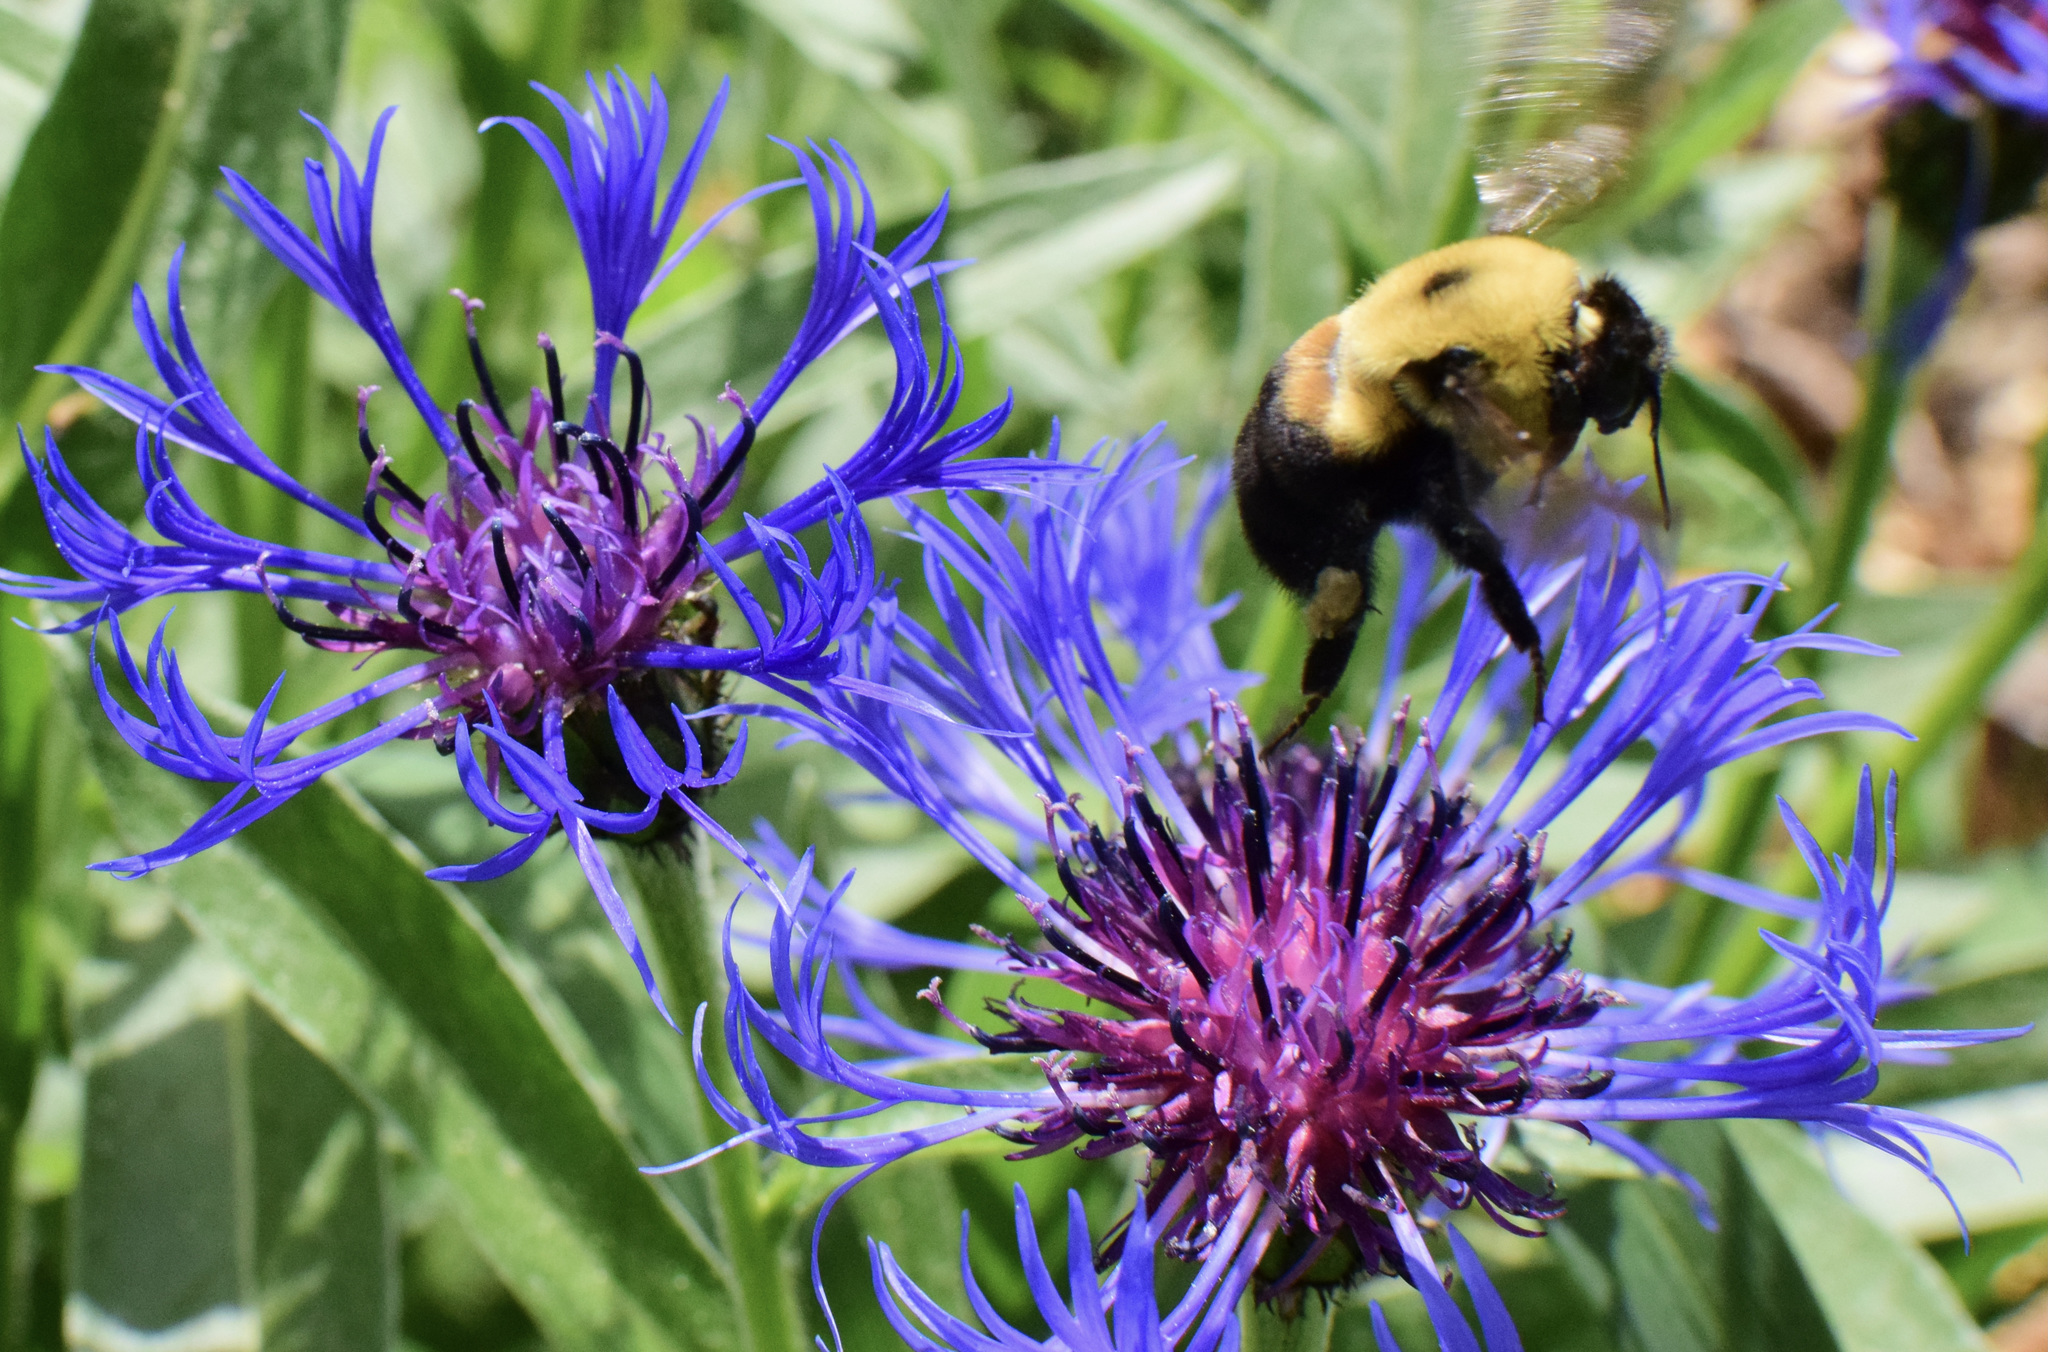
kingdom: Animalia
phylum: Arthropoda
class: Insecta
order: Hymenoptera
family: Apidae
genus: Bombus
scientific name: Bombus griseocollis
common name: Brown-belted bumble bee
